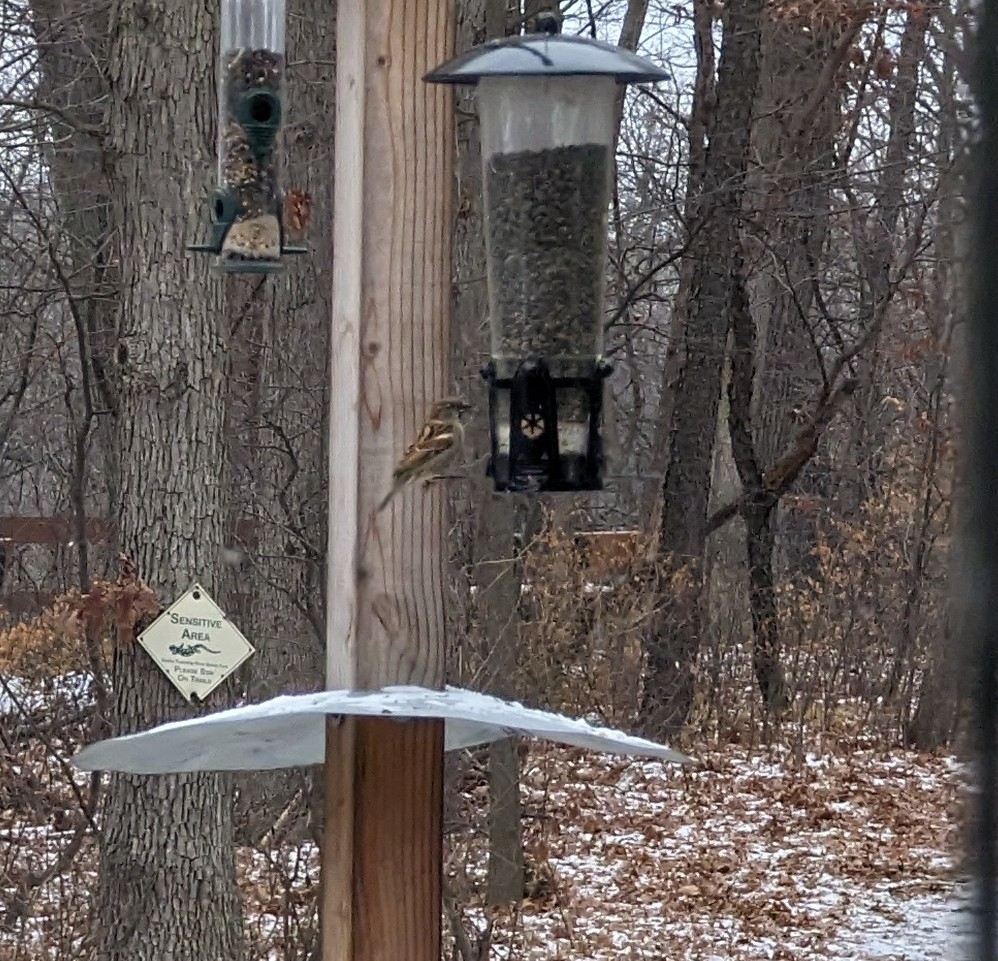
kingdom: Animalia
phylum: Chordata
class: Aves
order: Passeriformes
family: Passeridae
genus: Passer
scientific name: Passer domesticus
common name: House sparrow
